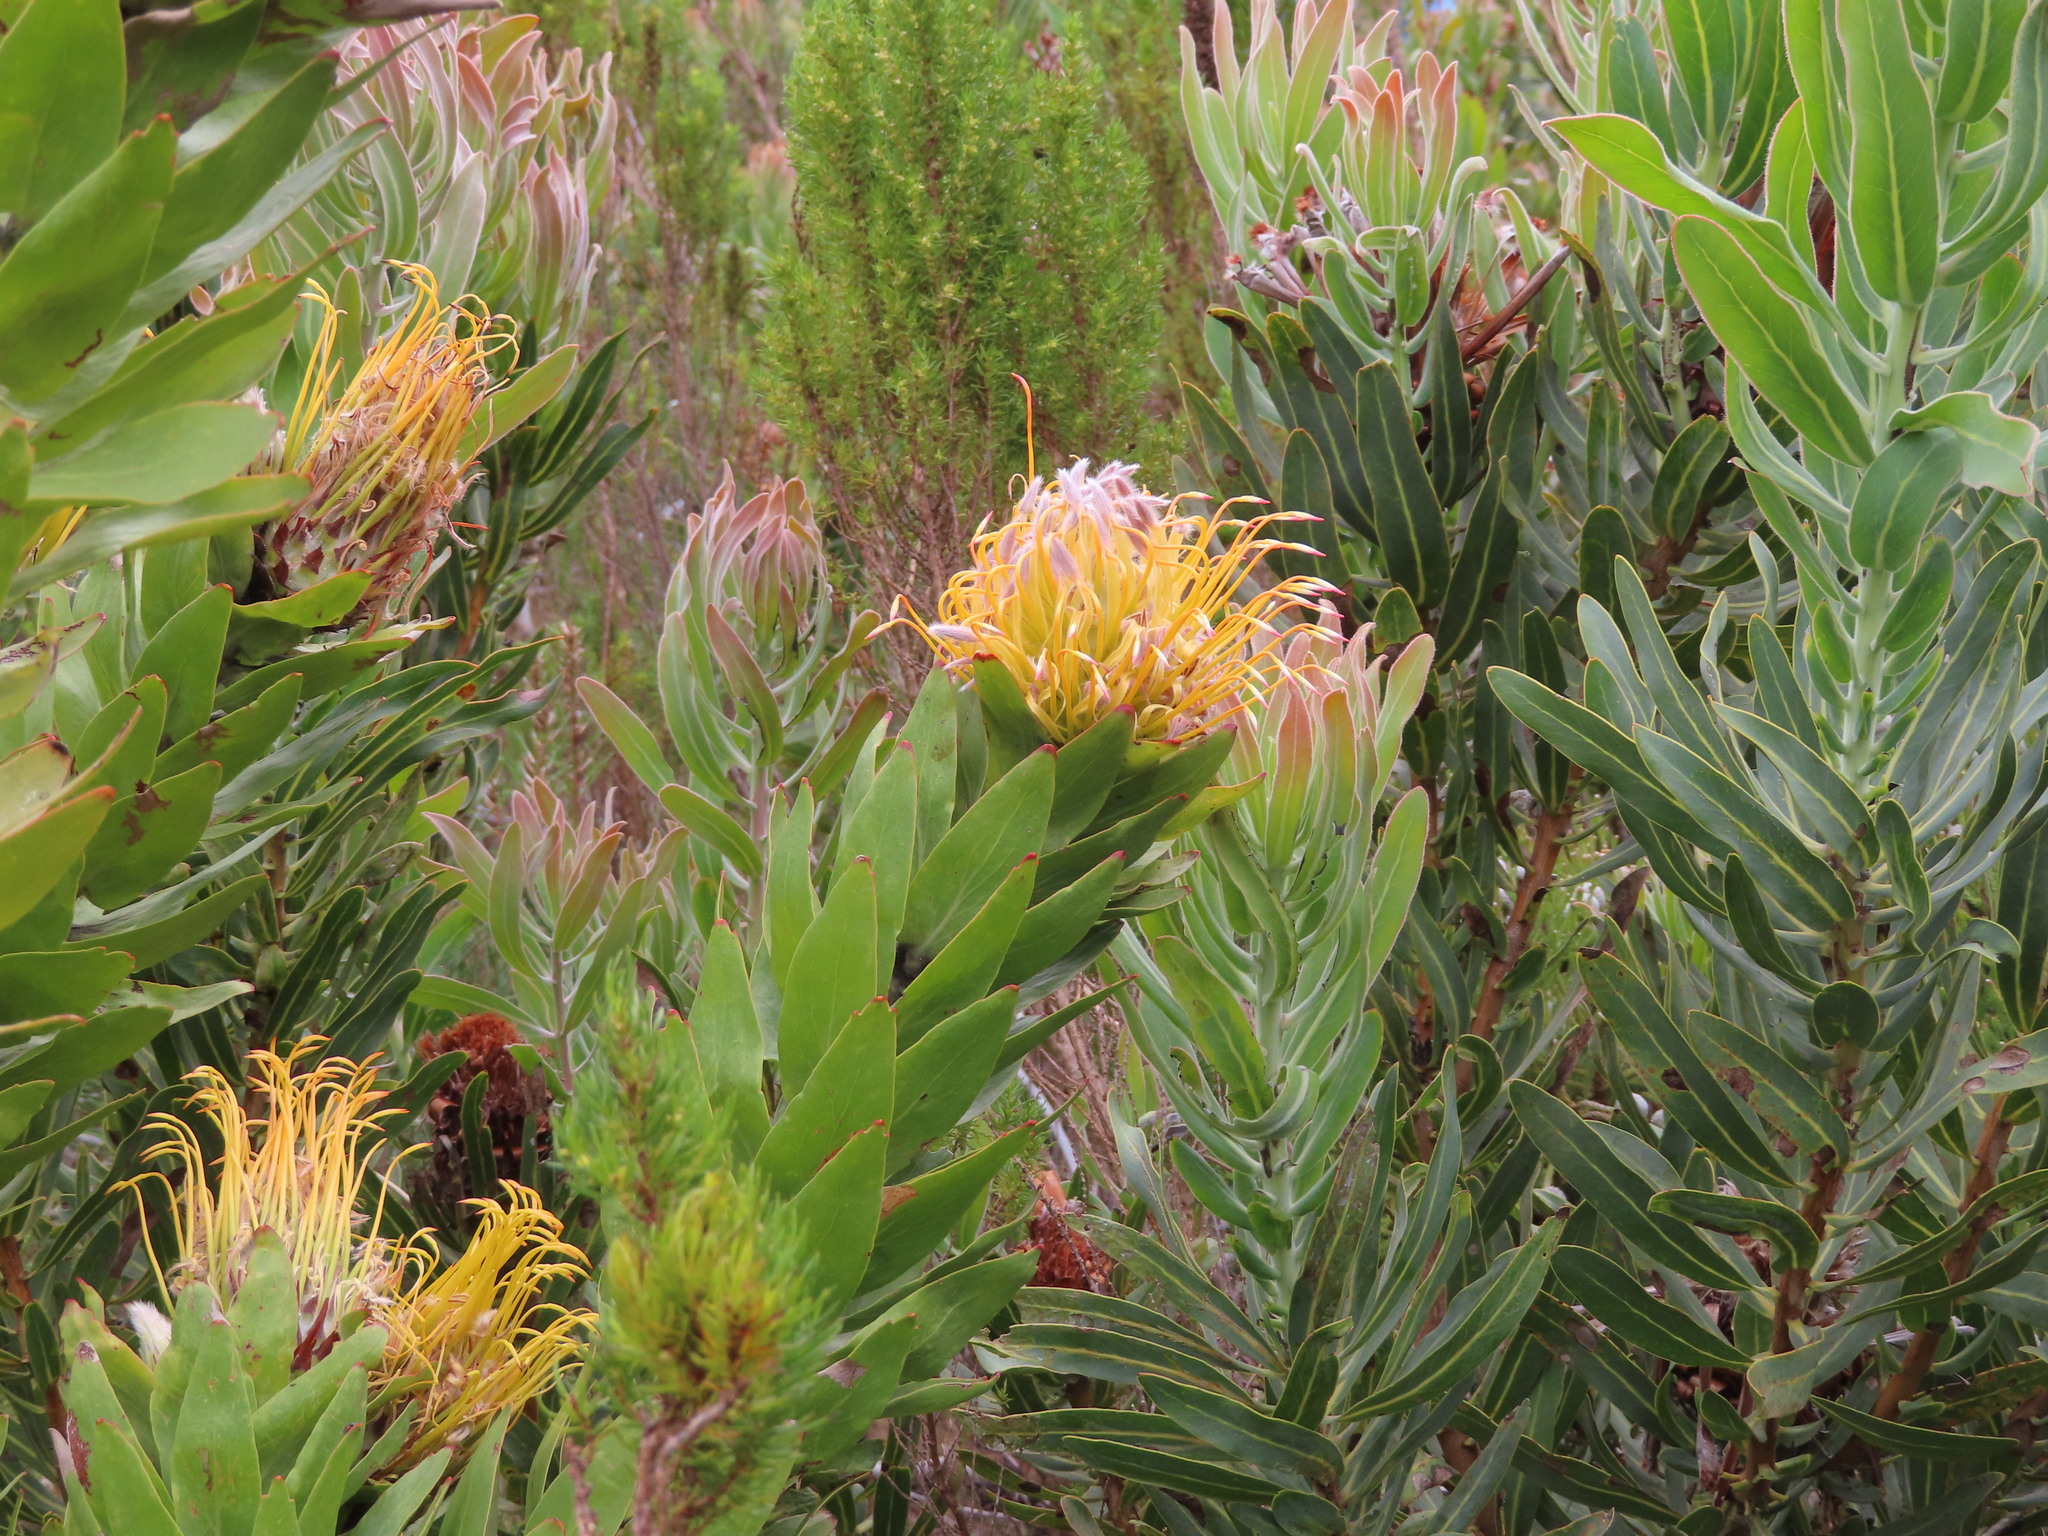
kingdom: Plantae
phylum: Tracheophyta
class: Magnoliopsida
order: Proteales
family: Proteaceae
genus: Leucospermum
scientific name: Leucospermum gueinzii
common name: Kloof fountain pincushion
